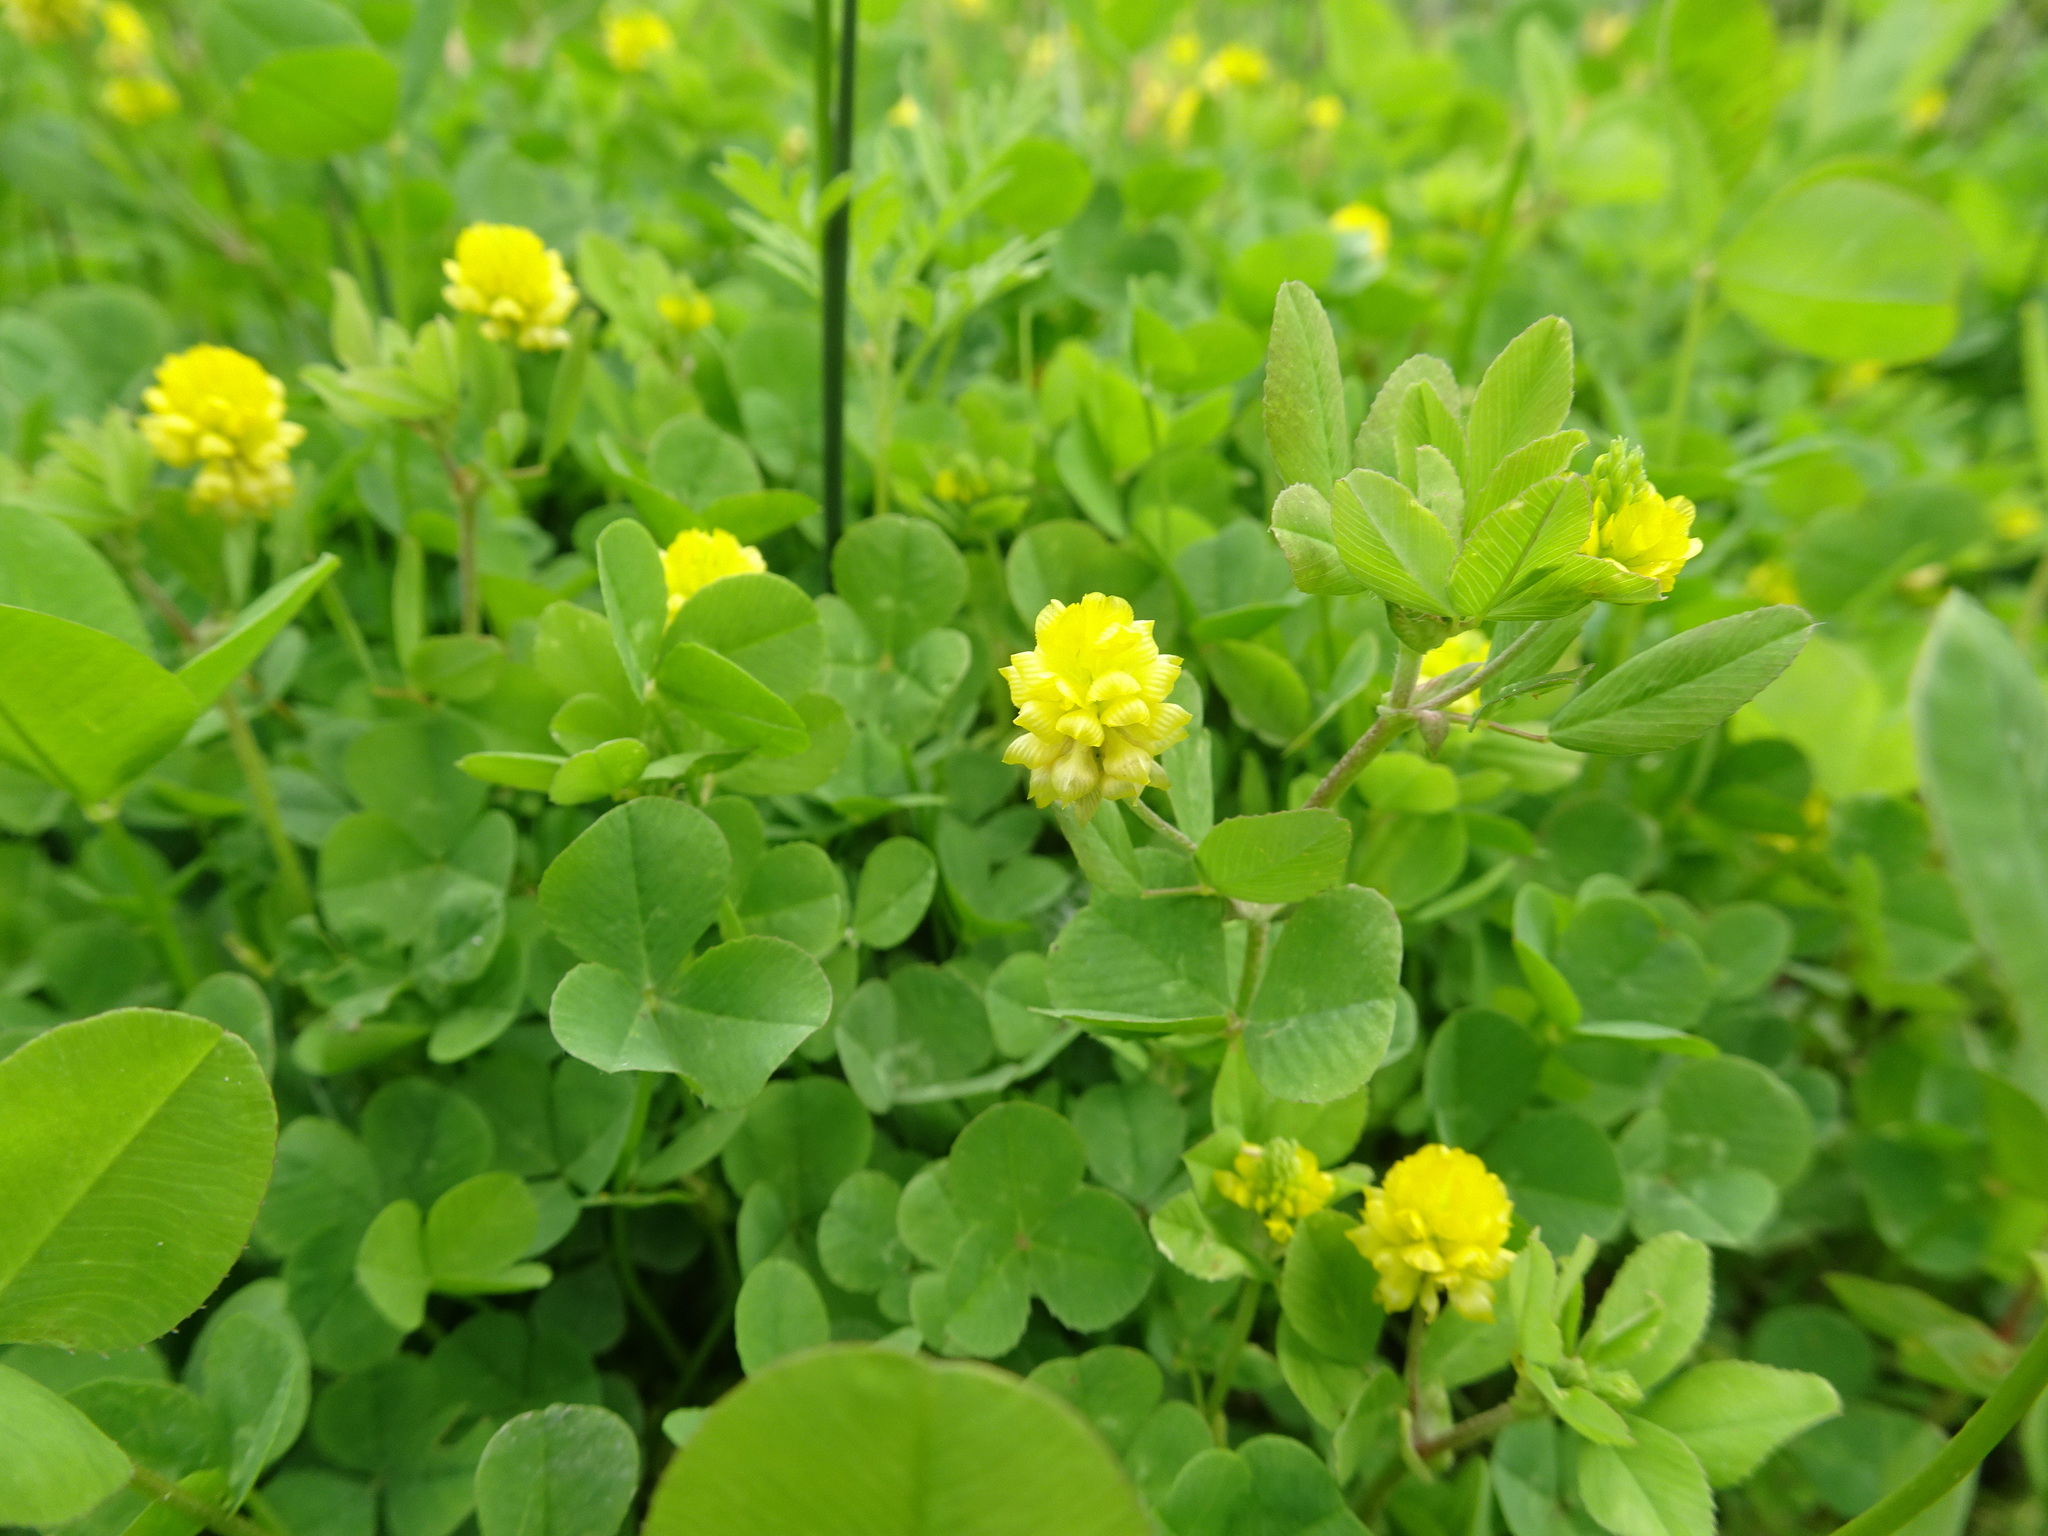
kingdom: Plantae
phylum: Tracheophyta
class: Magnoliopsida
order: Fabales
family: Fabaceae
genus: Trifolium
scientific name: Trifolium campestre
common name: Field clover
